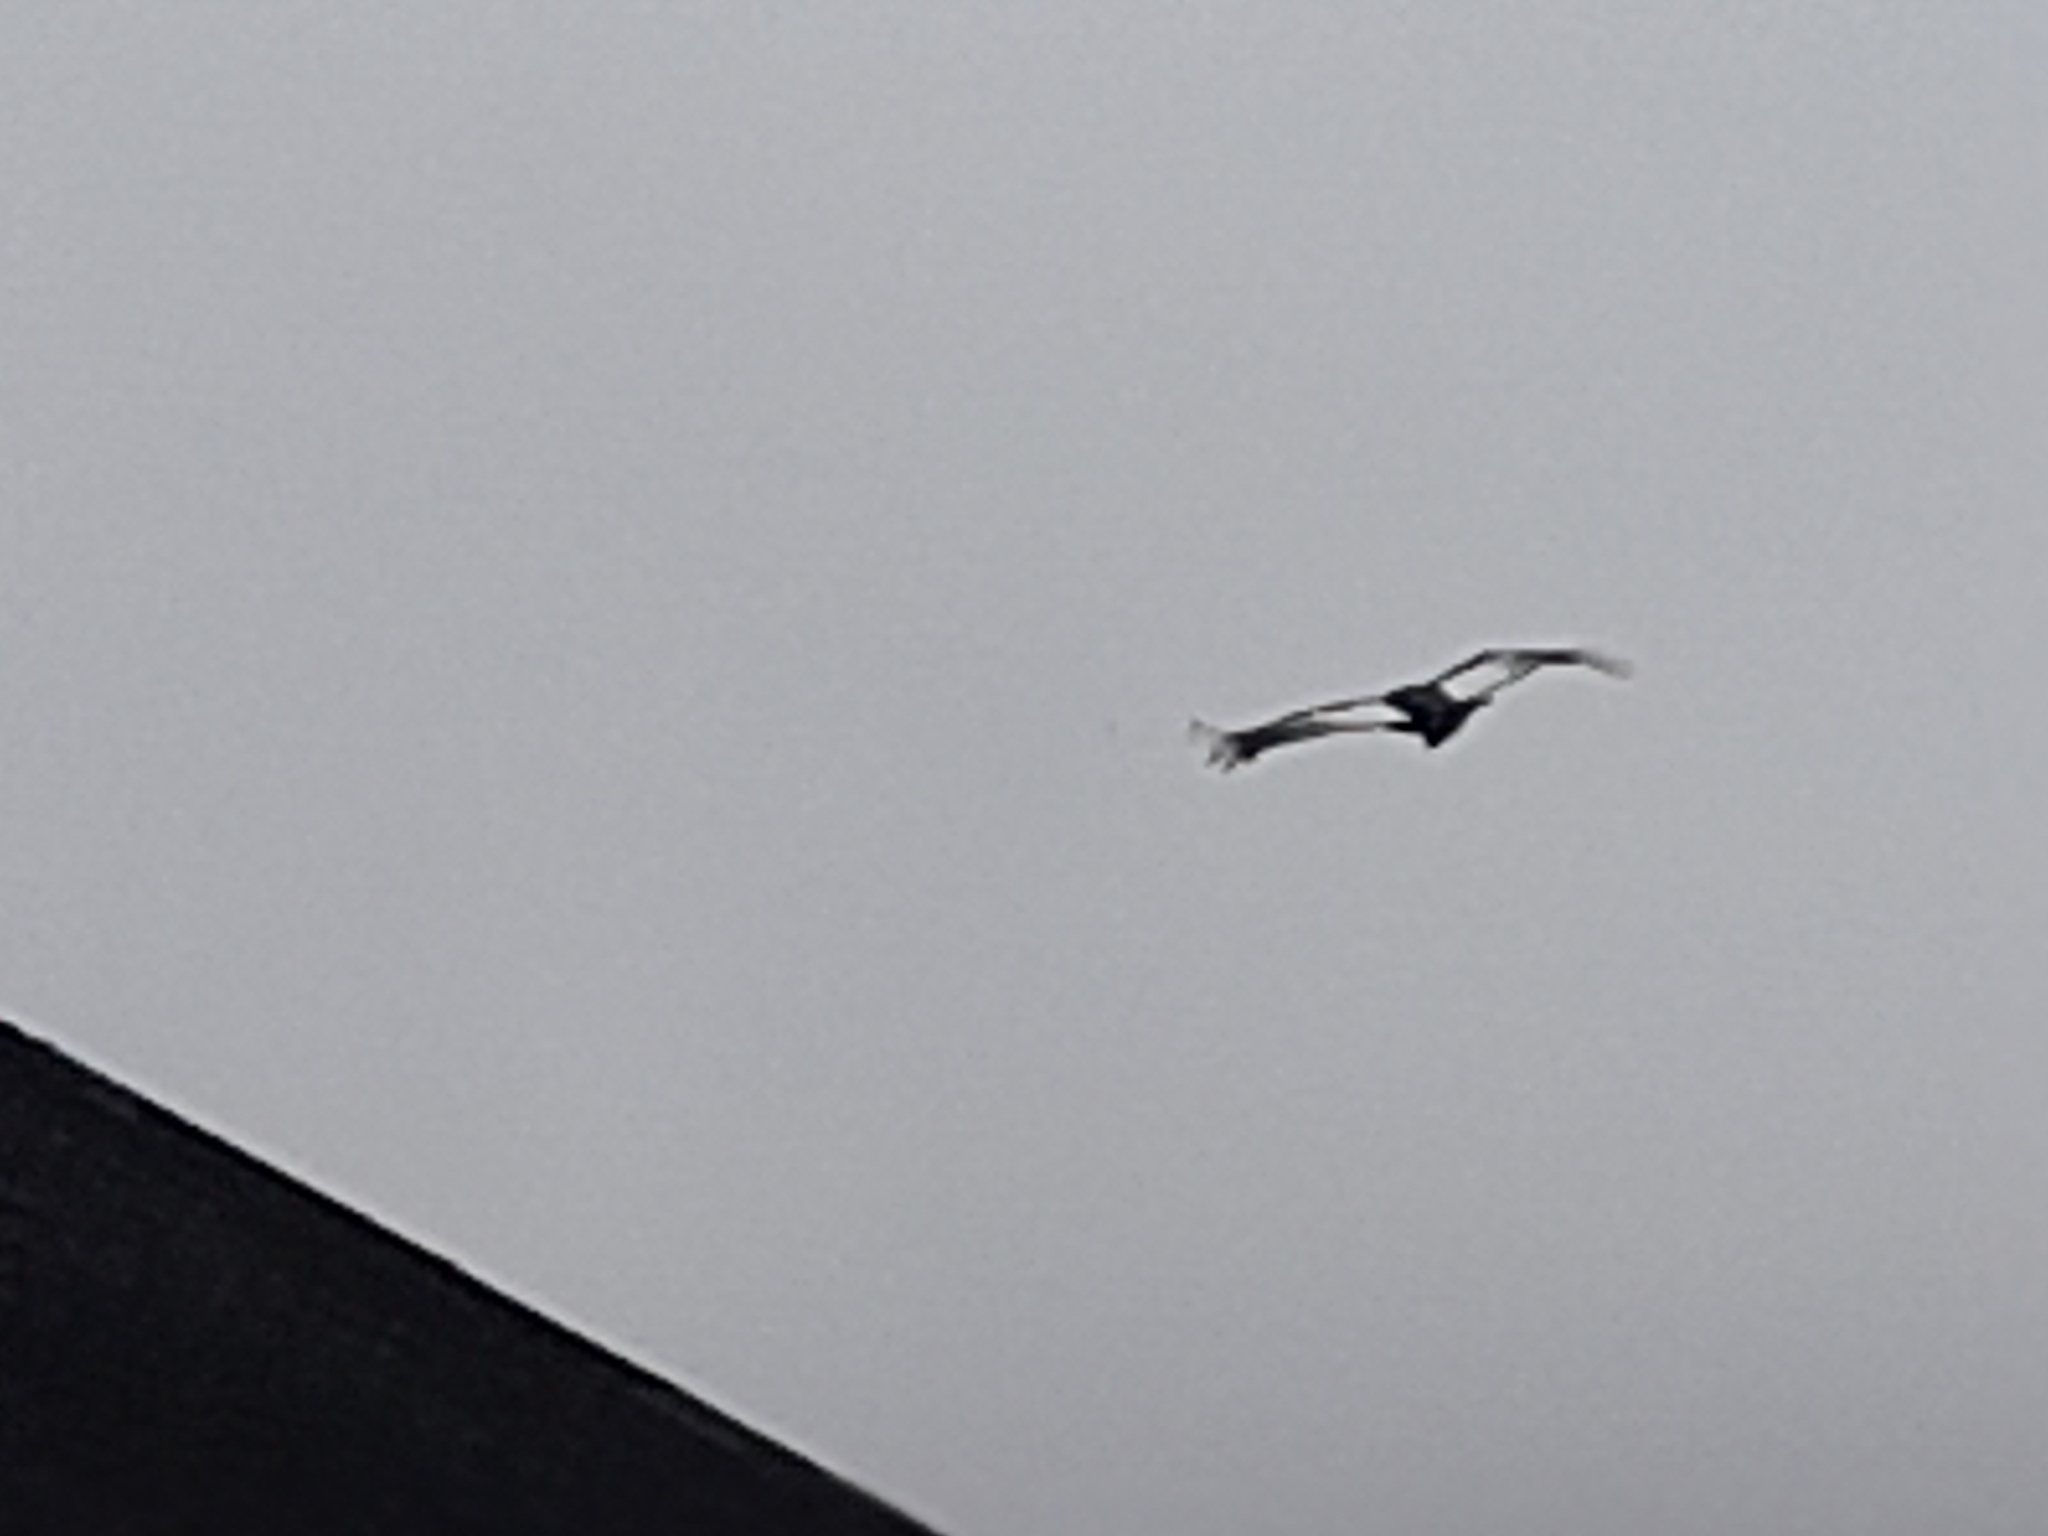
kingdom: Animalia
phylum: Chordata
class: Aves
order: Accipitriformes
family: Cathartidae
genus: Vultur
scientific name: Vultur gryphus
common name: Andean condor
